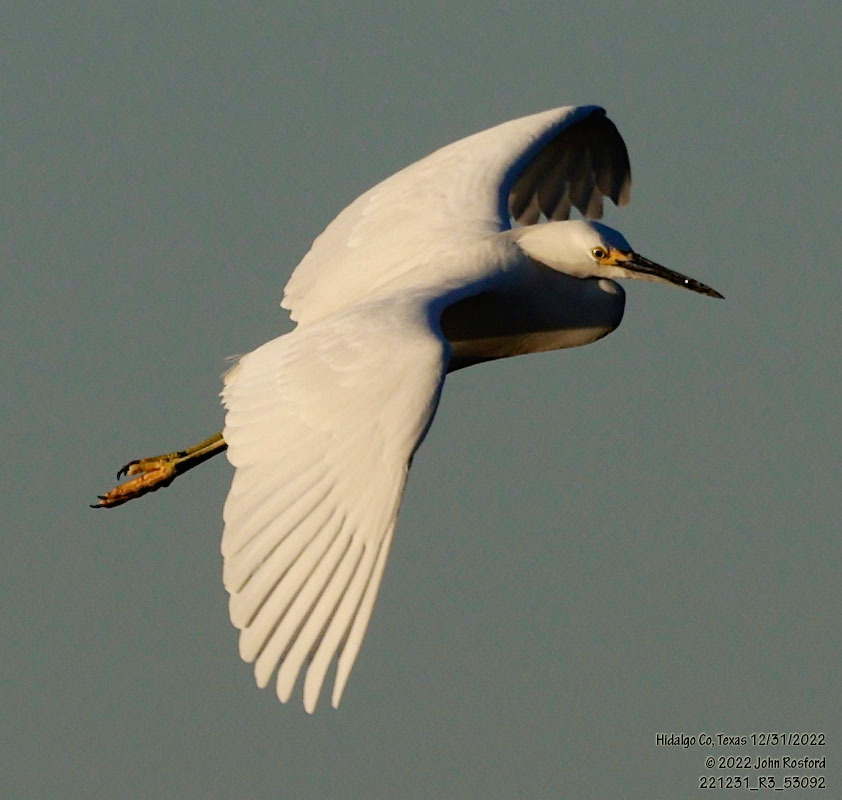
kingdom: Animalia
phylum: Chordata
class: Aves
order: Pelecaniformes
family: Ardeidae
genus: Egretta
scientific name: Egretta thula
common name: Snowy egret
